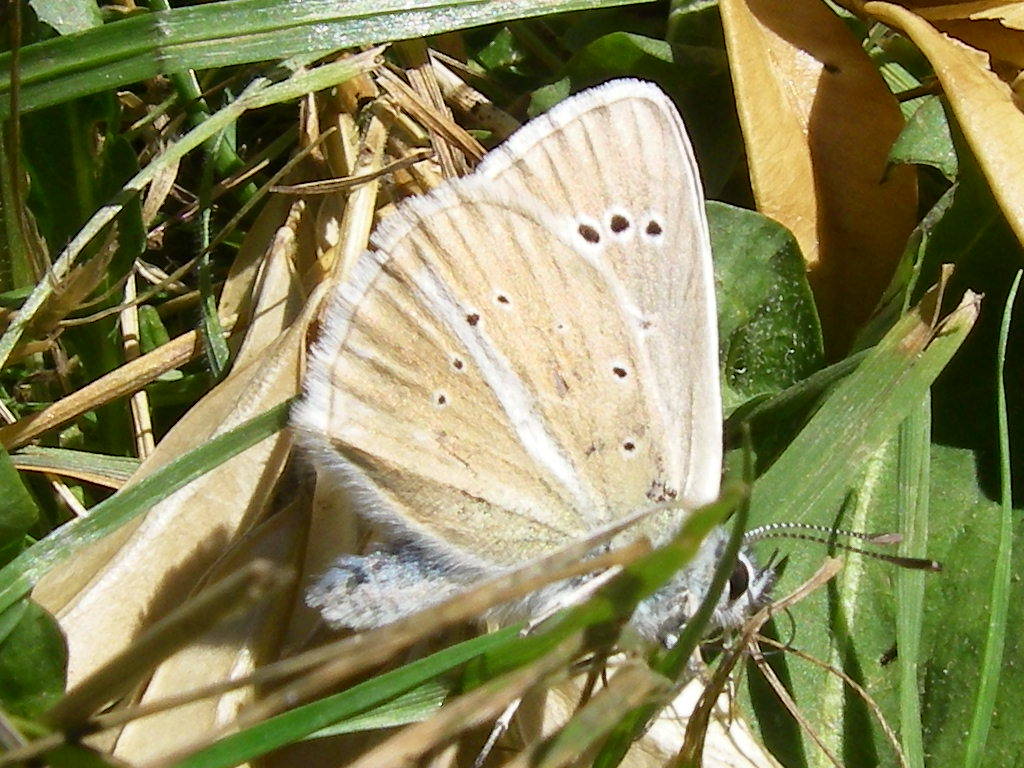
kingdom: Animalia
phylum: Arthropoda
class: Insecta
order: Lepidoptera
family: Lycaenidae
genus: Agrodiaetus
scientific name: Agrodiaetus damon
